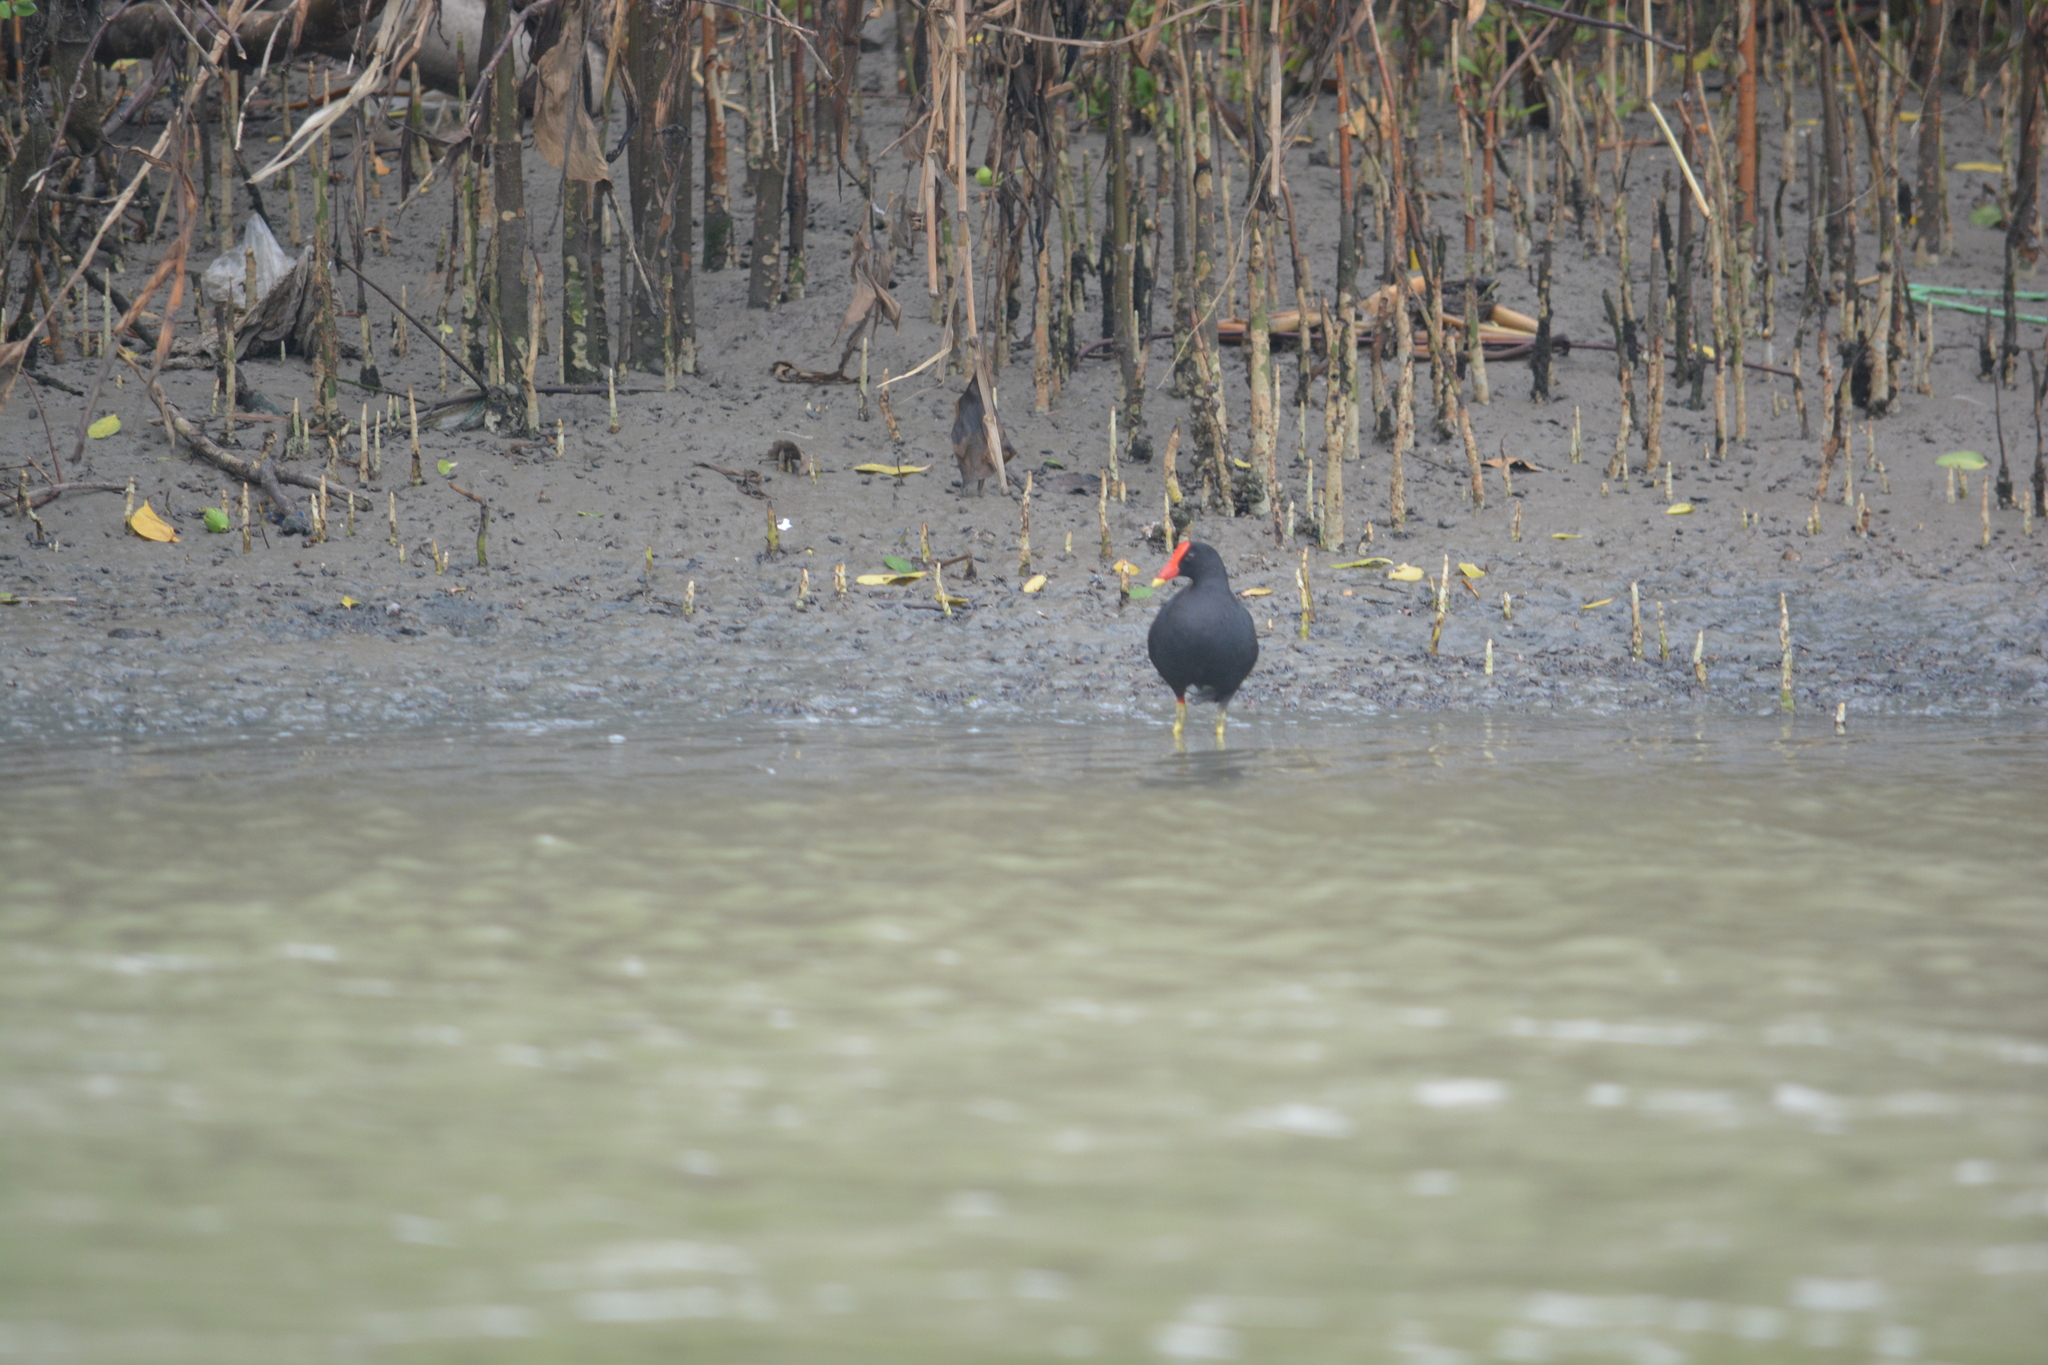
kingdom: Animalia
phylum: Chordata
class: Aves
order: Gruiformes
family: Rallidae
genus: Gallinula
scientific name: Gallinula chloropus
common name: Common moorhen
